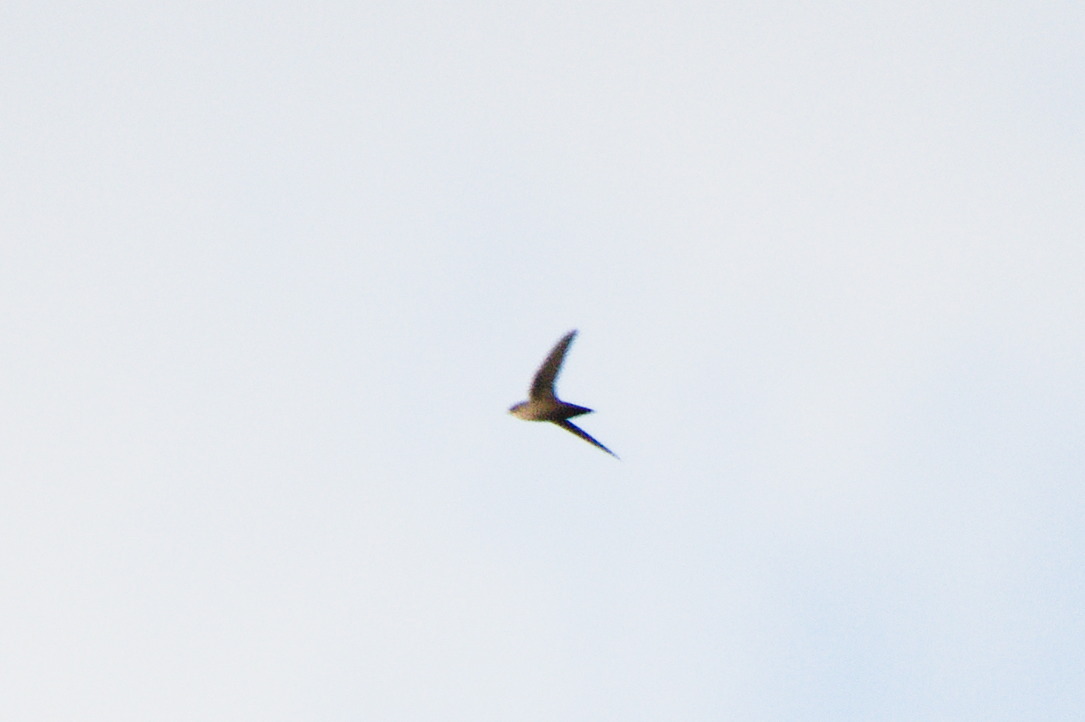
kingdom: Animalia
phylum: Chordata
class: Aves
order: Apodiformes
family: Apodidae
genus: Chaetura
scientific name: Chaetura vauxi
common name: Vaux's swift
